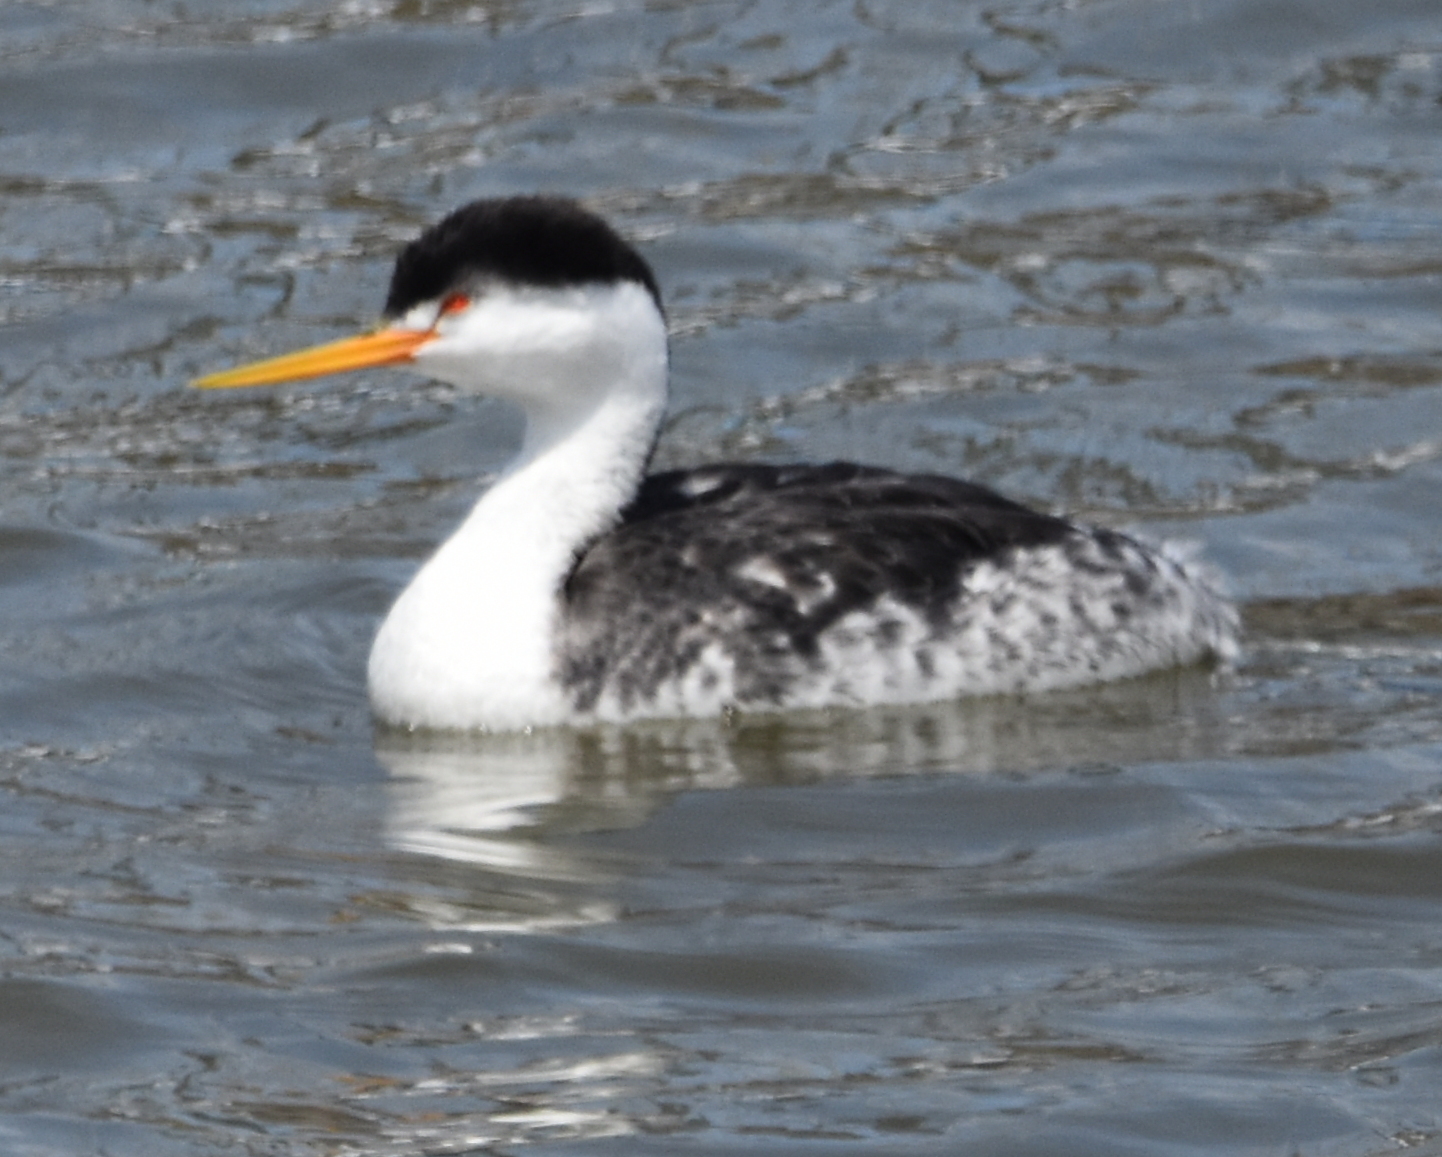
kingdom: Animalia
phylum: Chordata
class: Aves
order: Podicipediformes
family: Podicipedidae
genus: Aechmophorus
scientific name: Aechmophorus clarkii
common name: Clark's grebe
